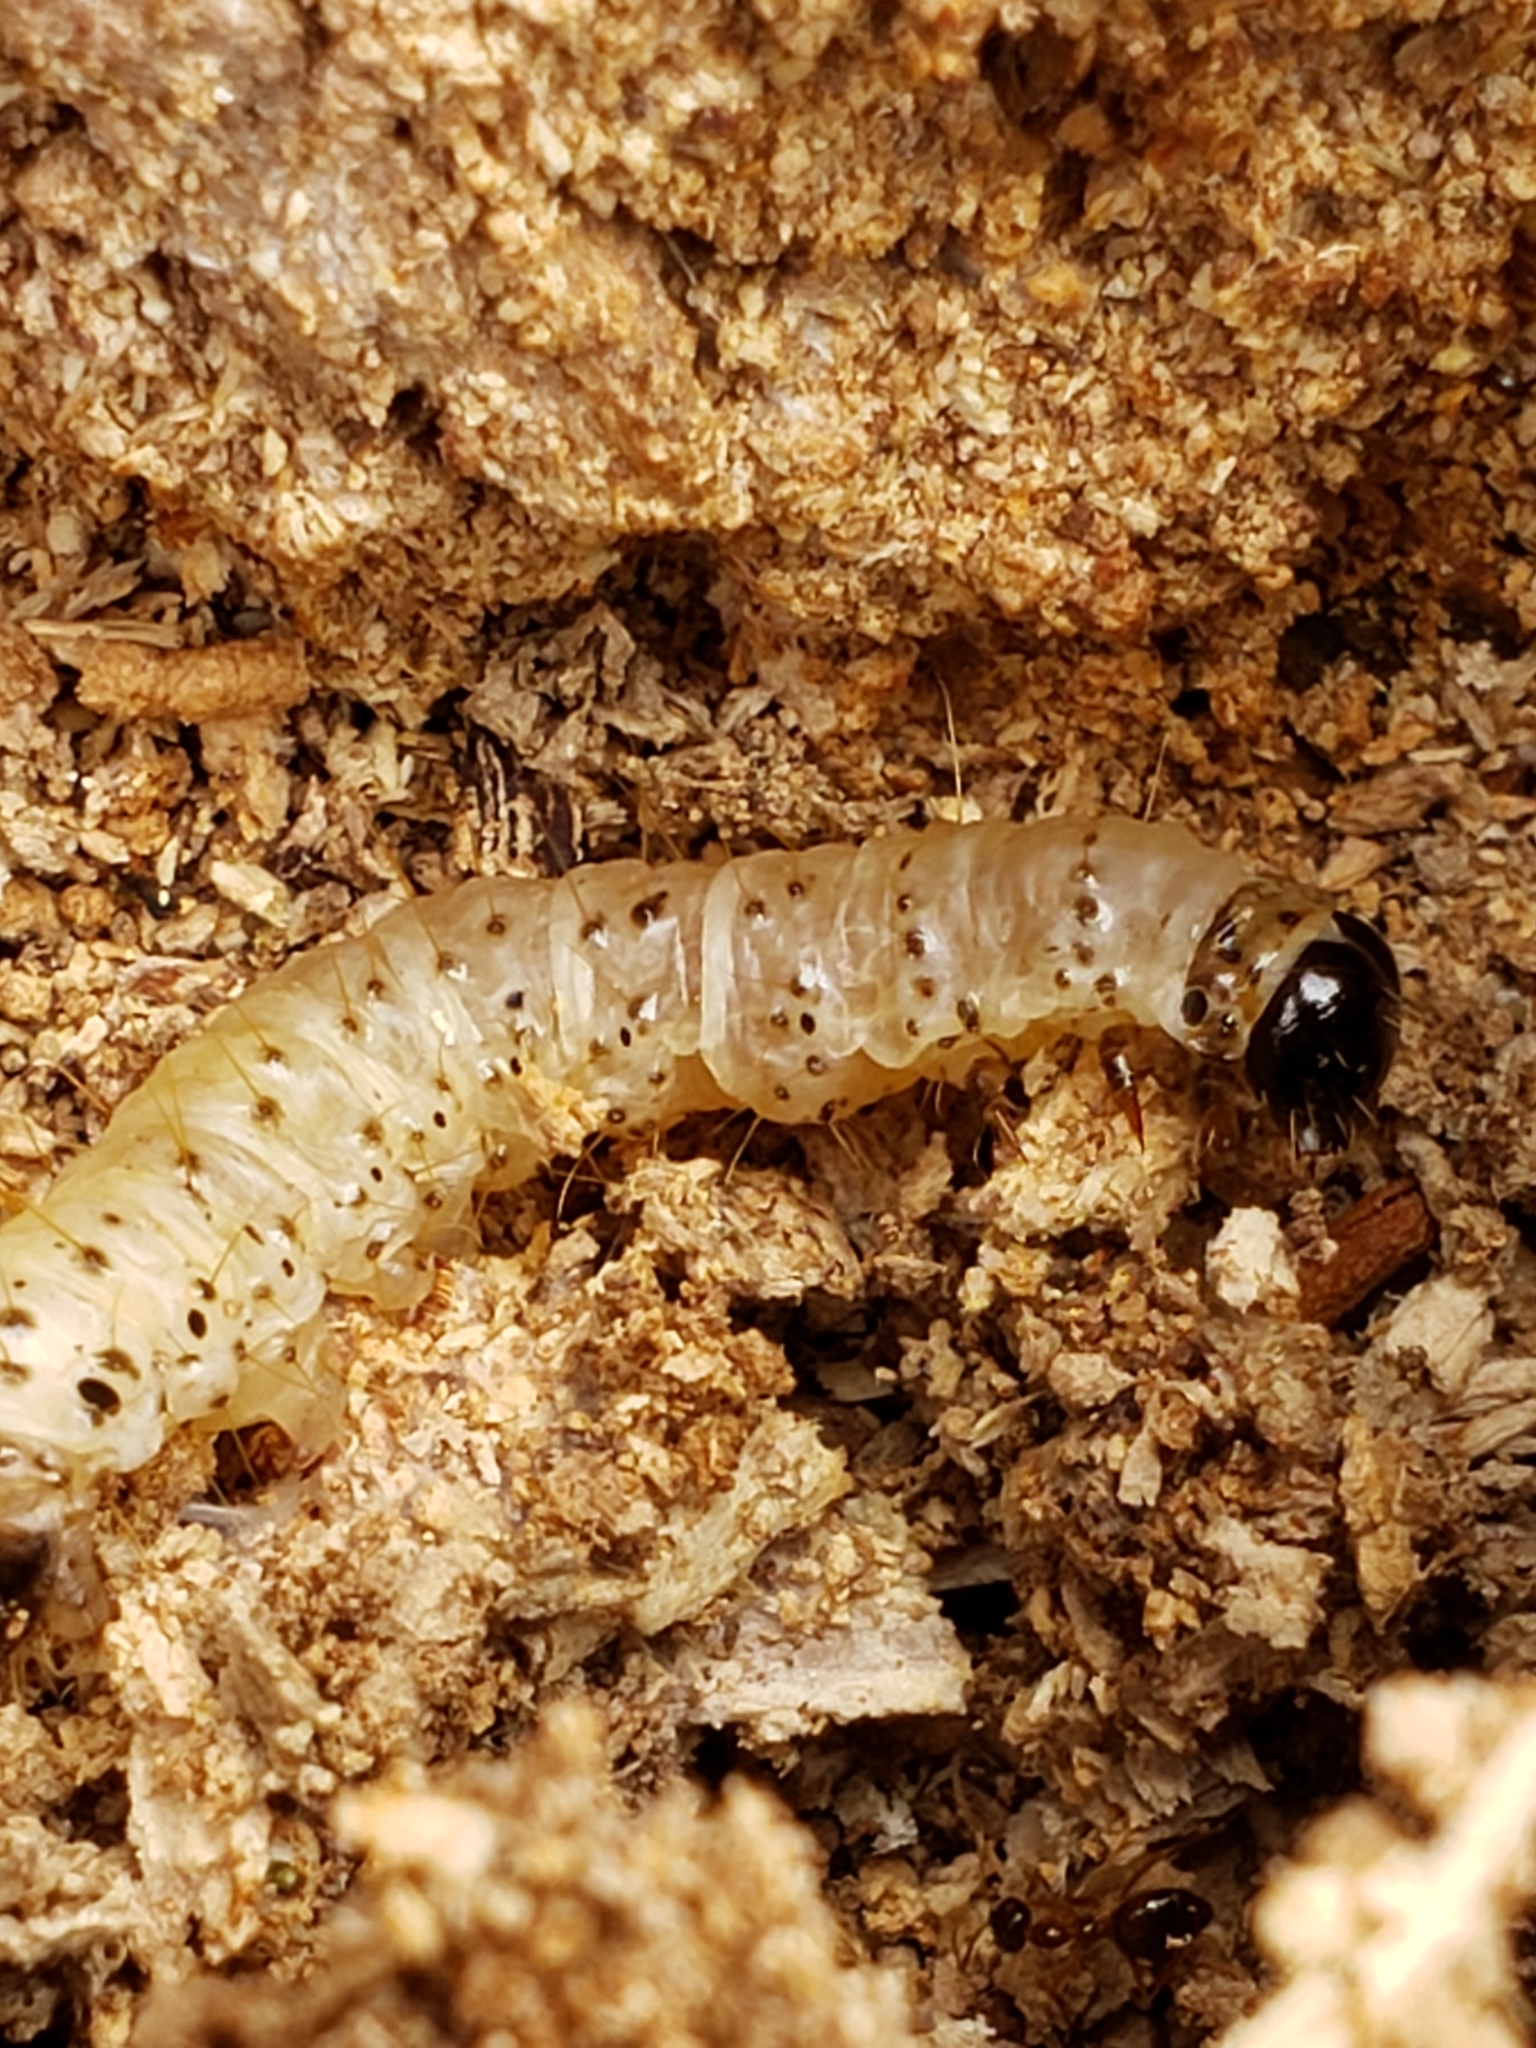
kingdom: Animalia
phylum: Arthropoda
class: Insecta
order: Lepidoptera
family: Erebidae
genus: Scolecocampa
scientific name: Scolecocampa liburna
